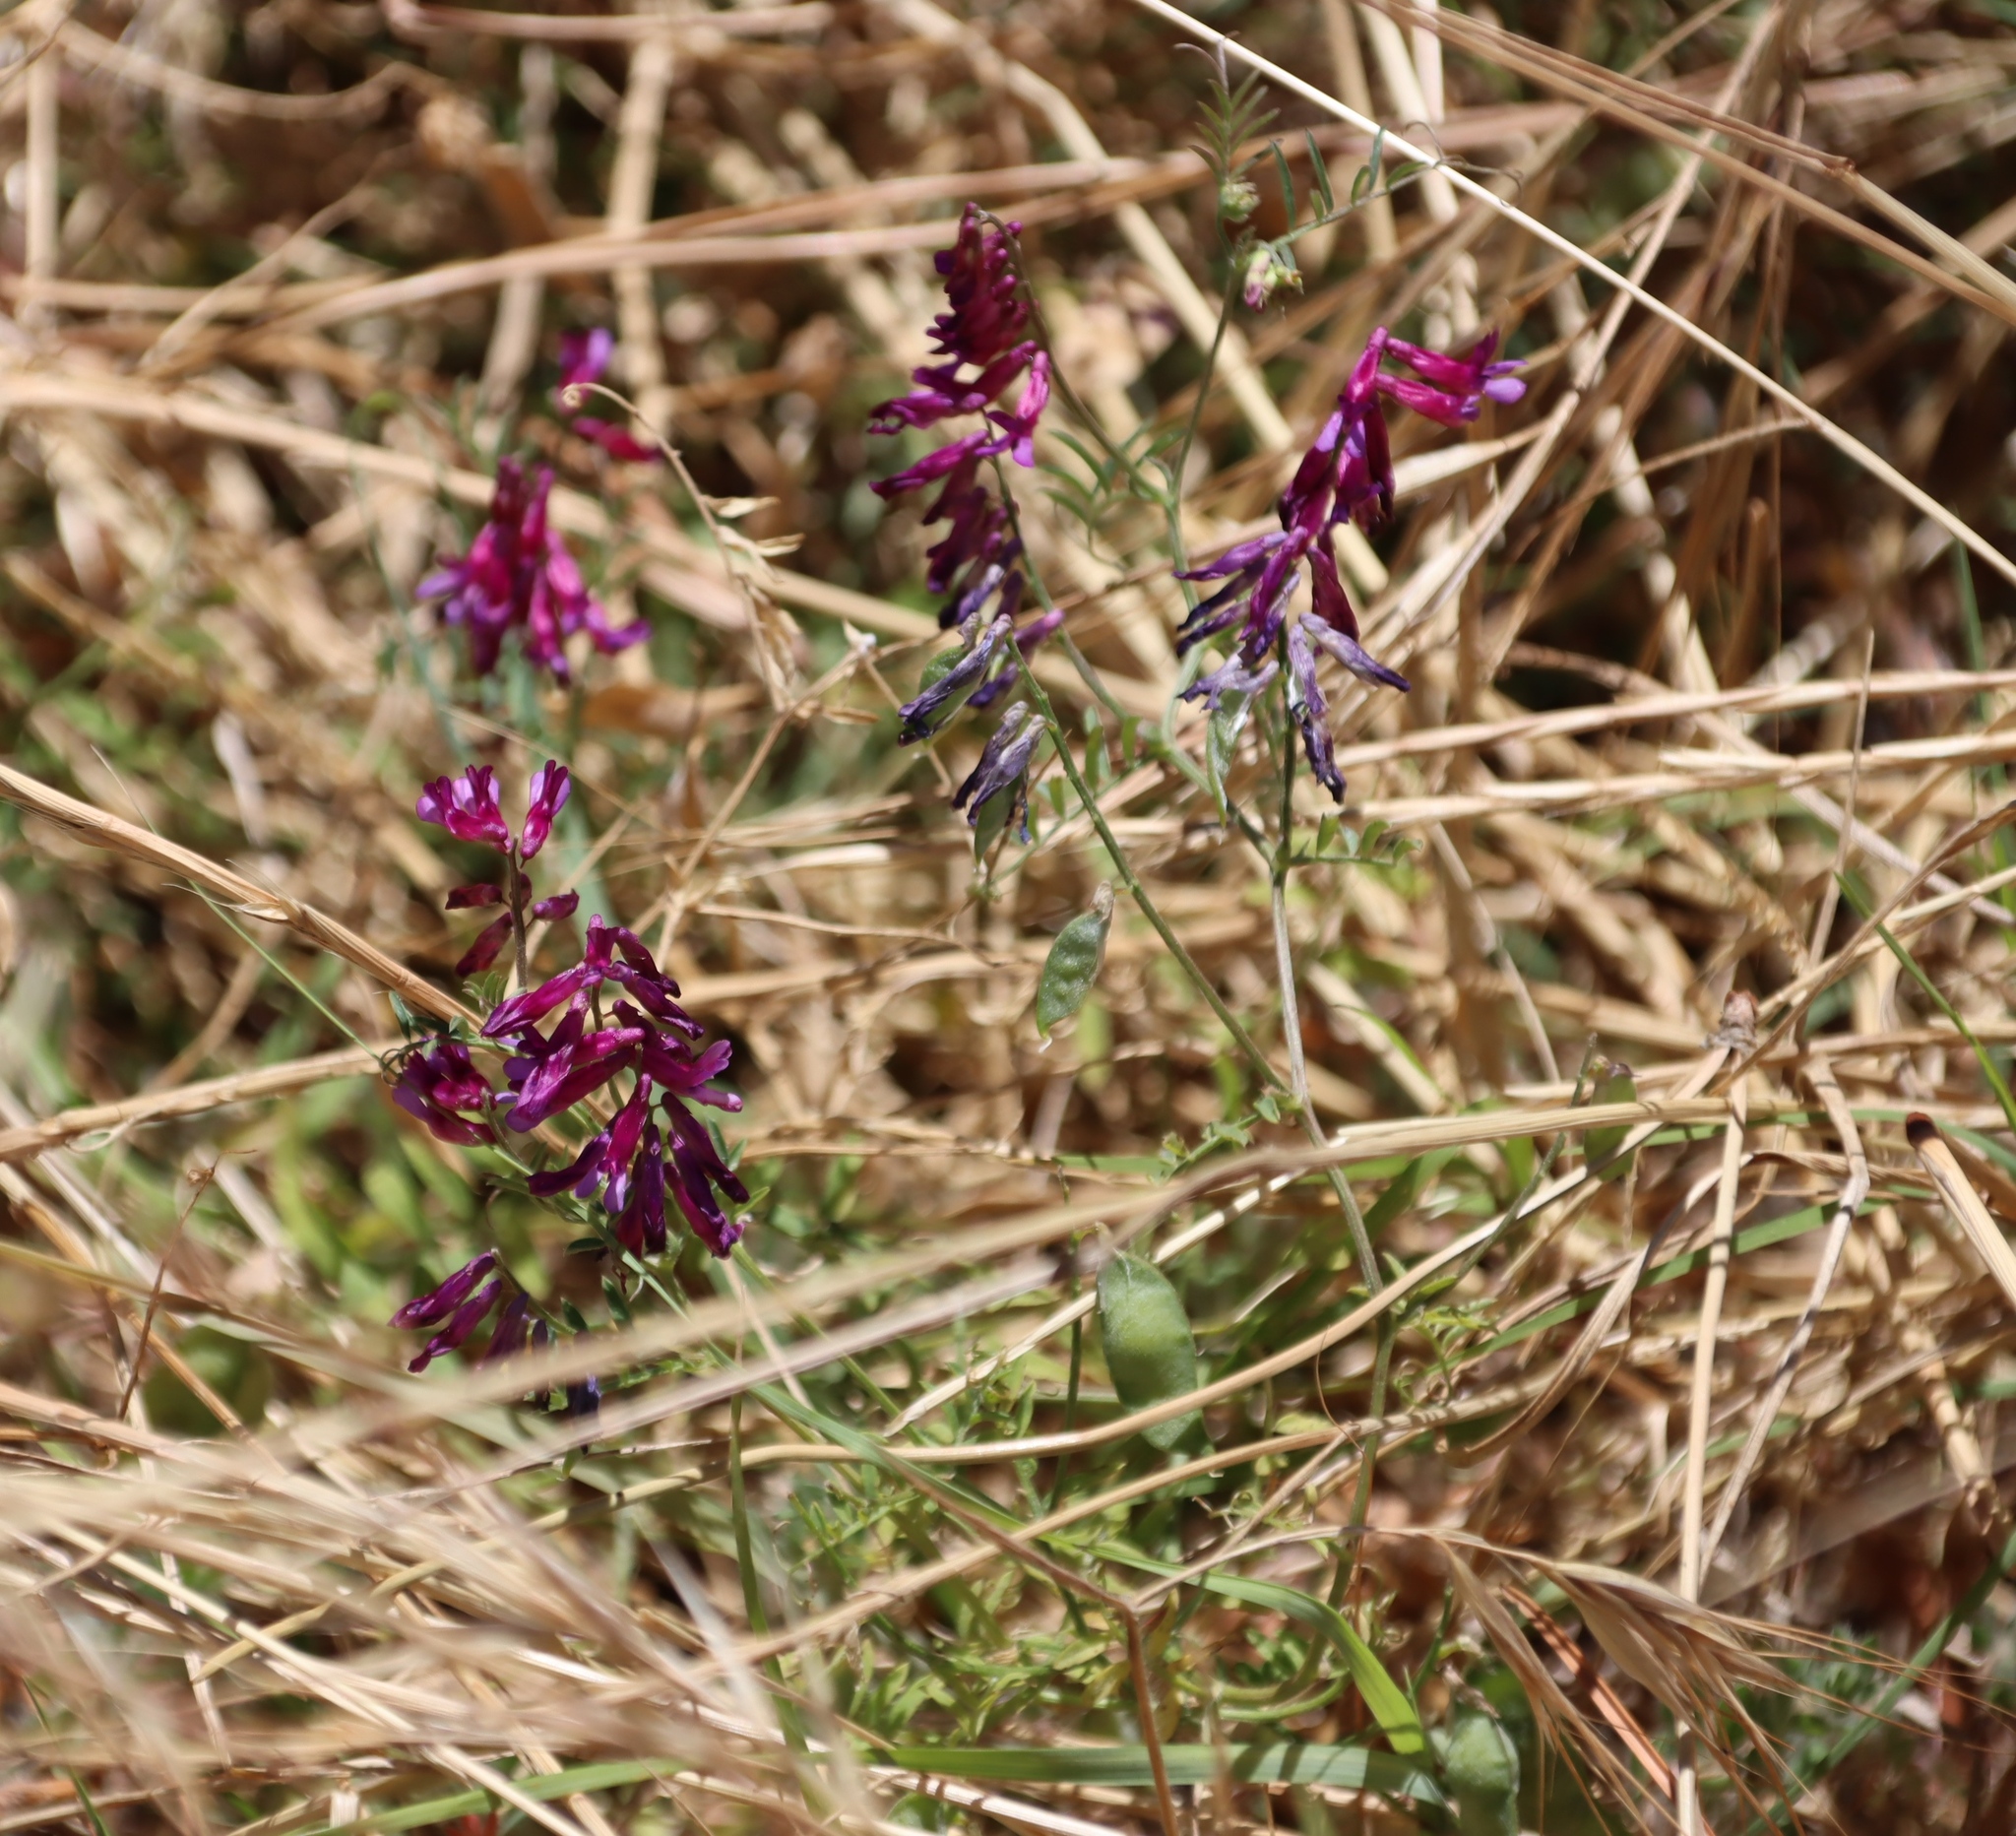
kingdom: Plantae
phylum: Tracheophyta
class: Magnoliopsida
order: Fabales
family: Fabaceae
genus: Vicia
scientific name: Vicia eriocarpa
